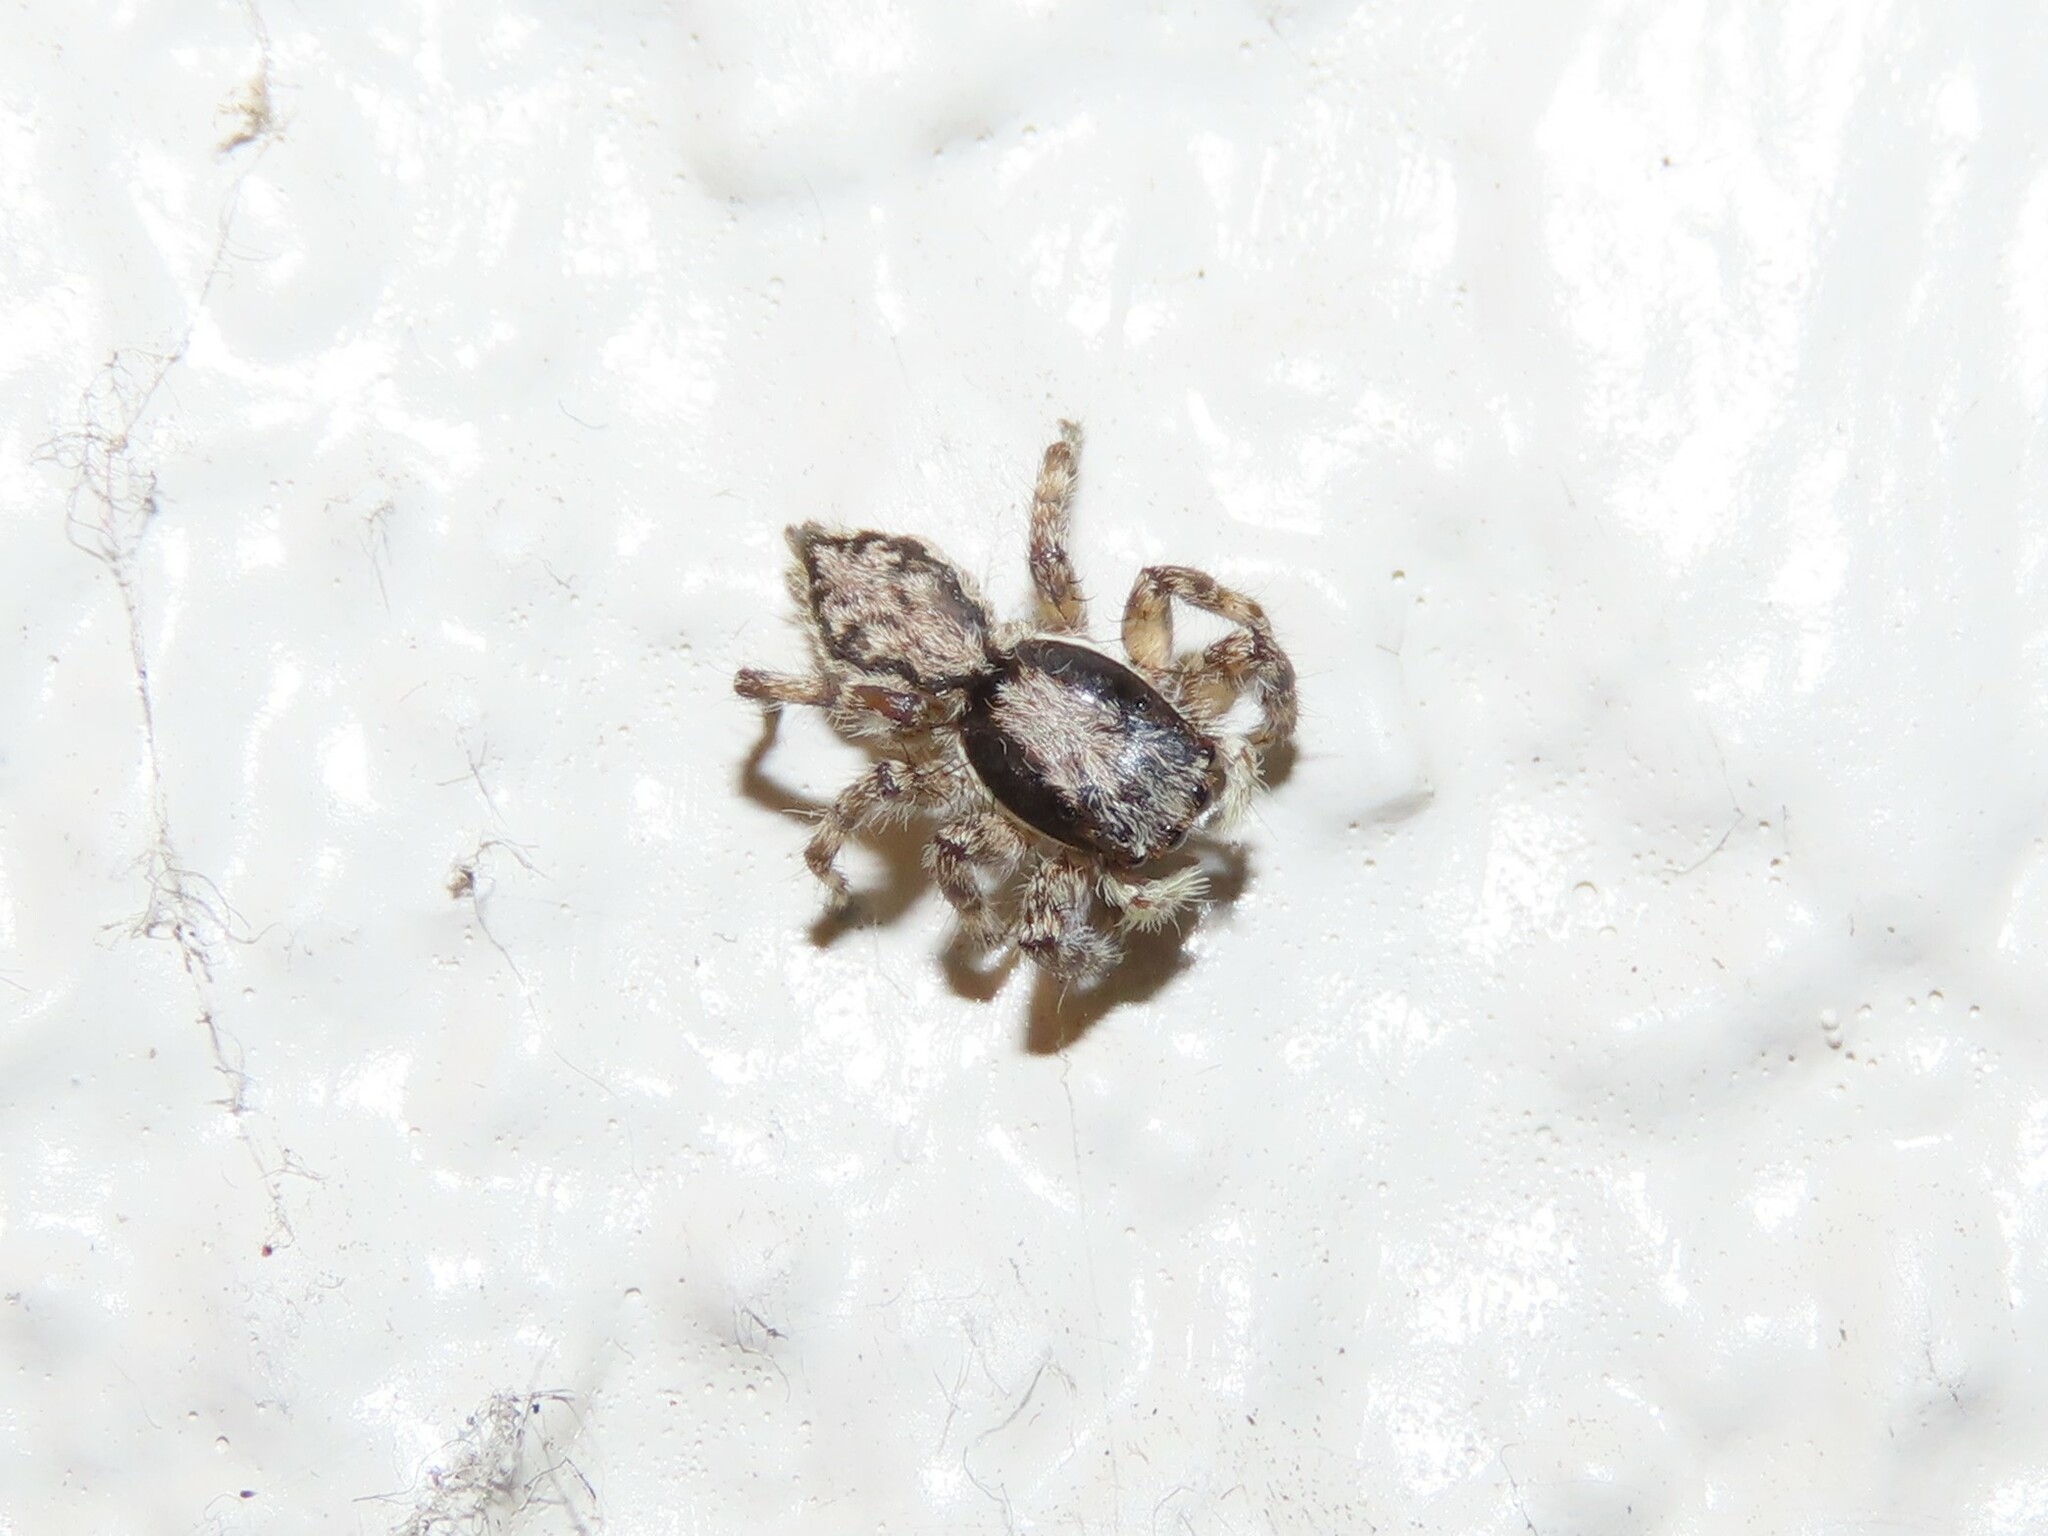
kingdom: Animalia
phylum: Arthropoda
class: Arachnida
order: Araneae
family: Salticidae
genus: Menemerus
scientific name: Menemerus bivittatus
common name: Gray wall jumper
